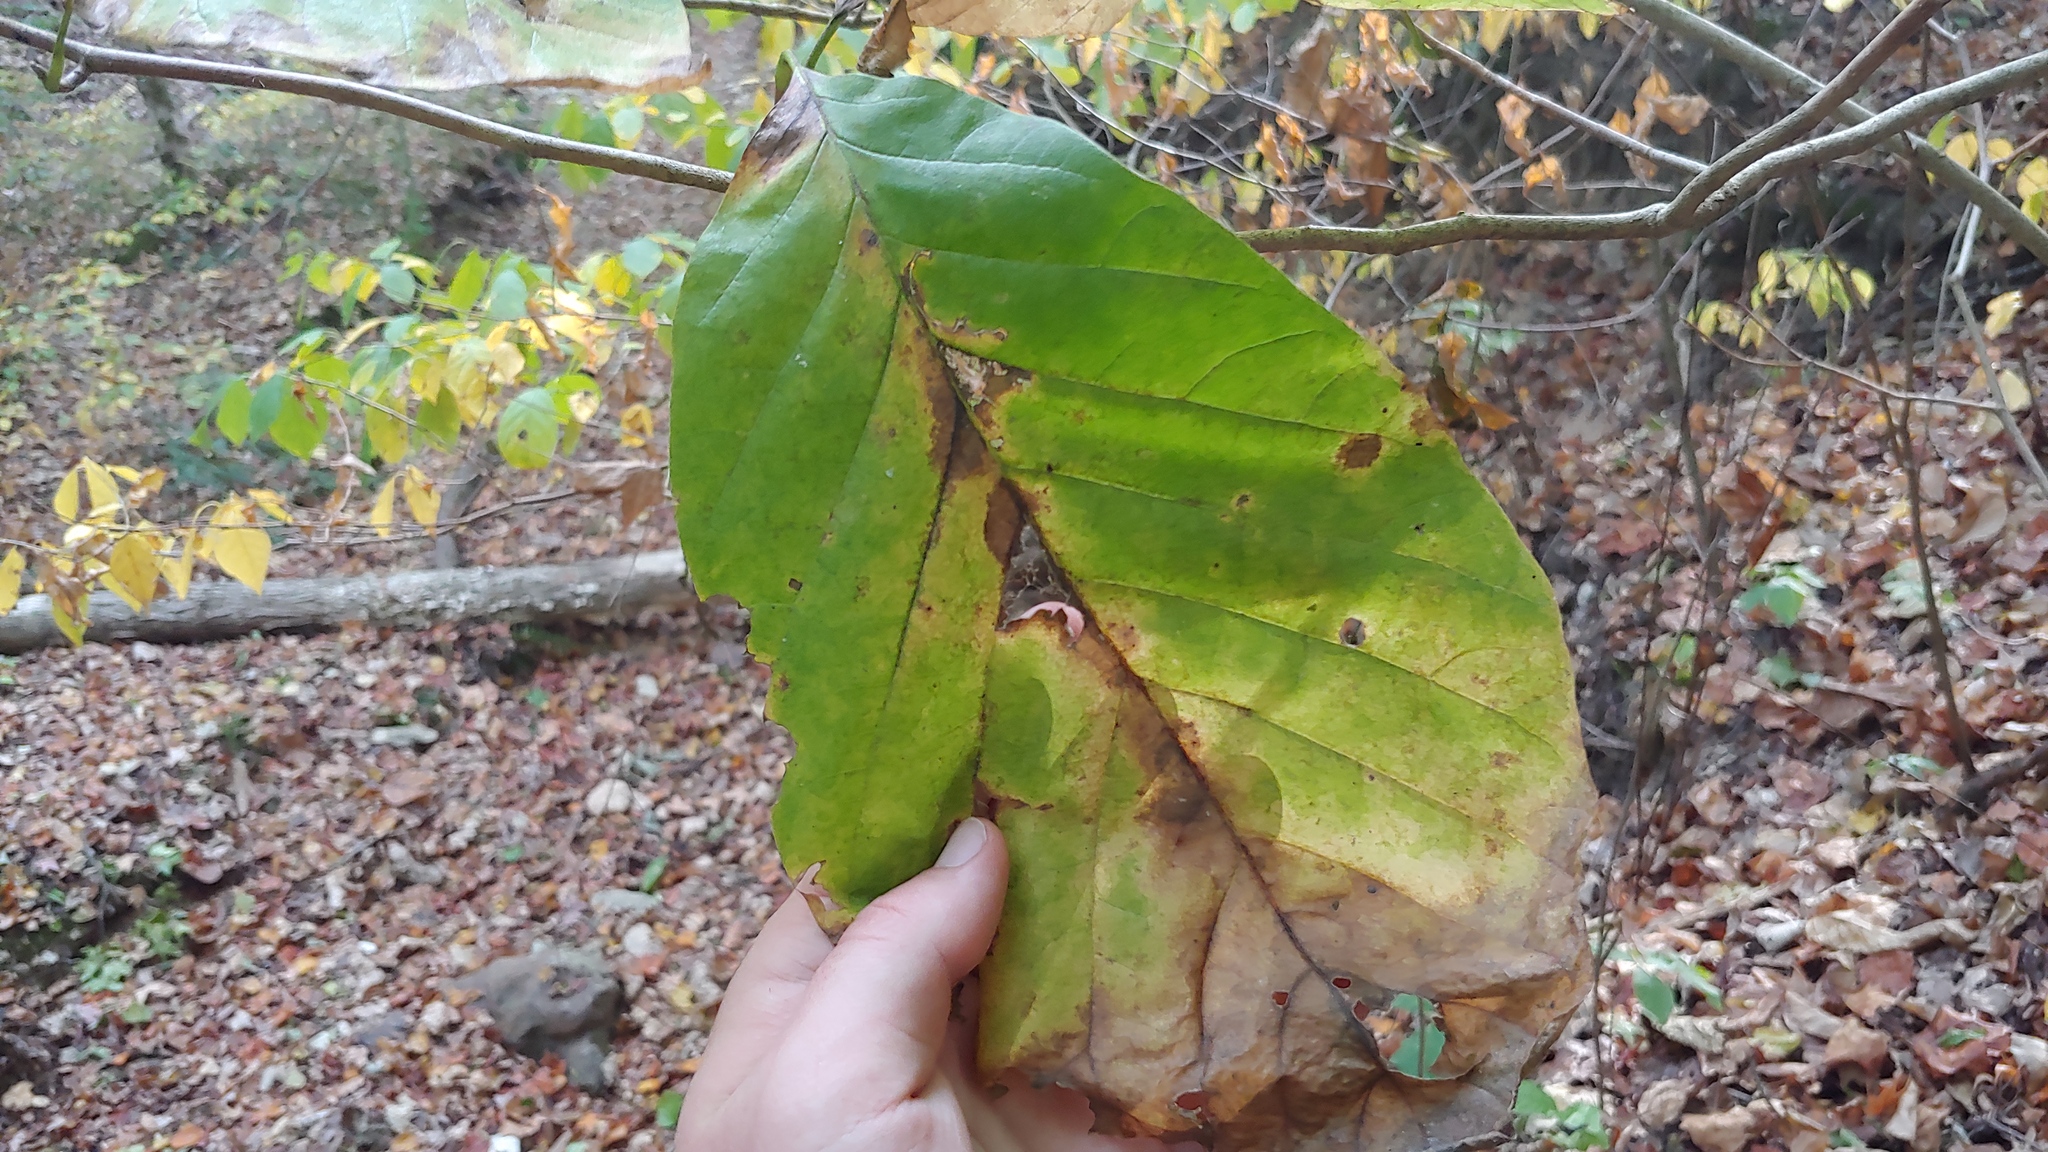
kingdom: Plantae
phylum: Tracheophyta
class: Magnoliopsida
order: Magnoliales
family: Magnoliaceae
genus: Magnolia
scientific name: Magnolia acuminata
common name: Cucumber magnolia
